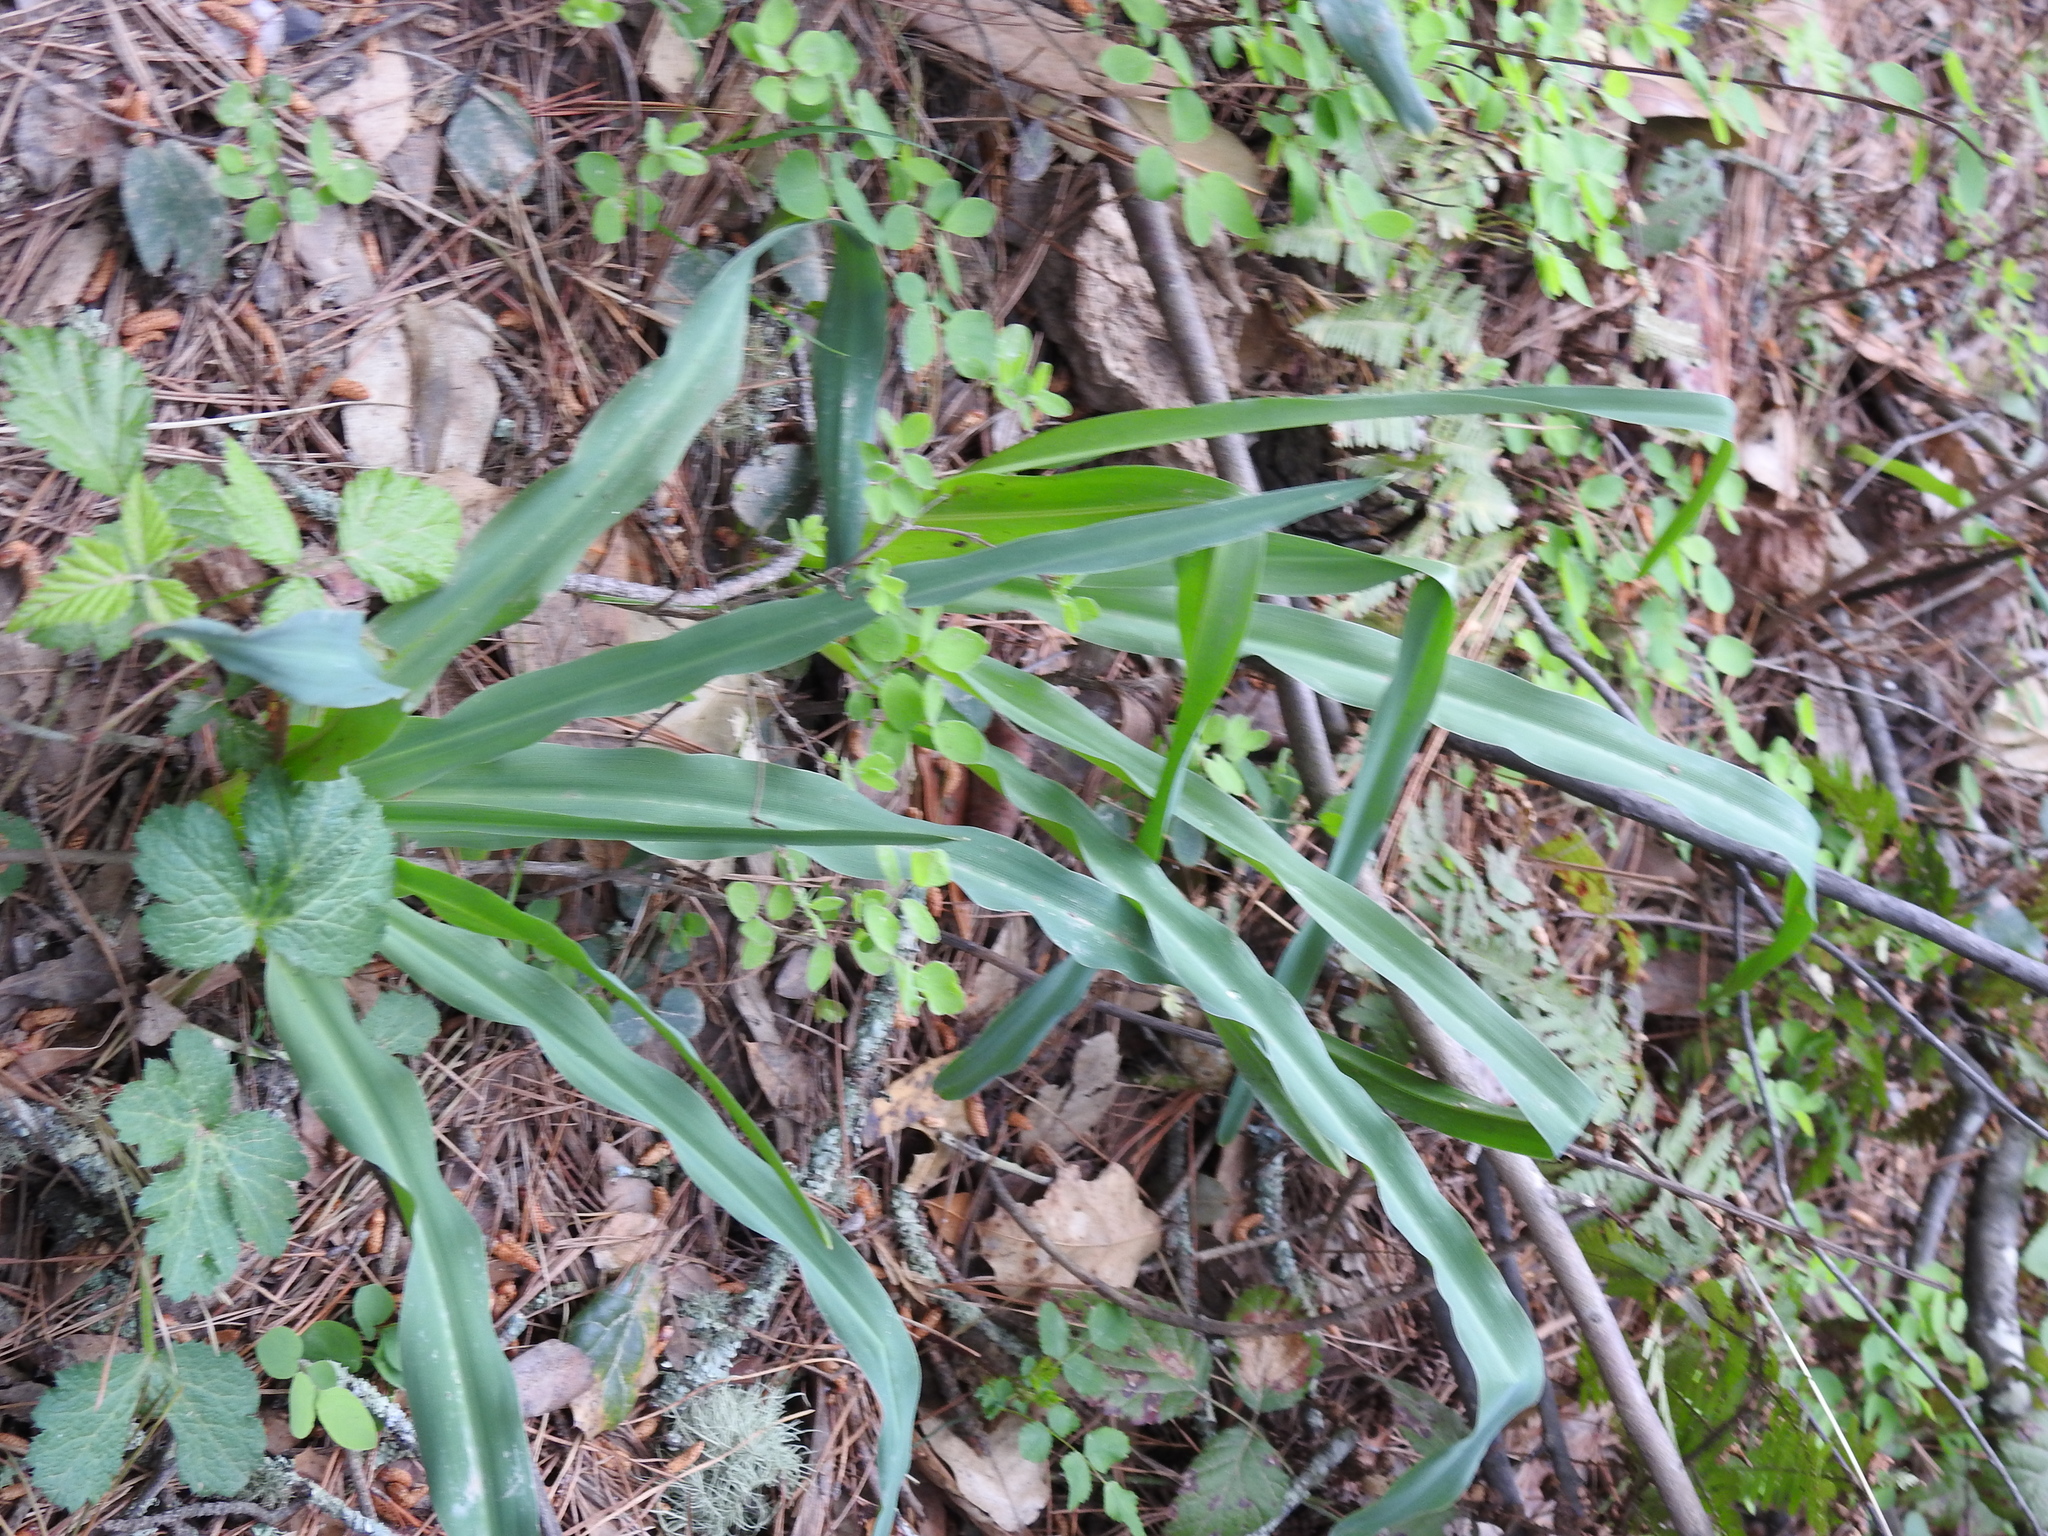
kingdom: Plantae
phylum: Tracheophyta
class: Liliopsida
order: Asparagales
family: Asparagaceae
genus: Chlorogalum
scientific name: Chlorogalum pomeridianum
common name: Amole
